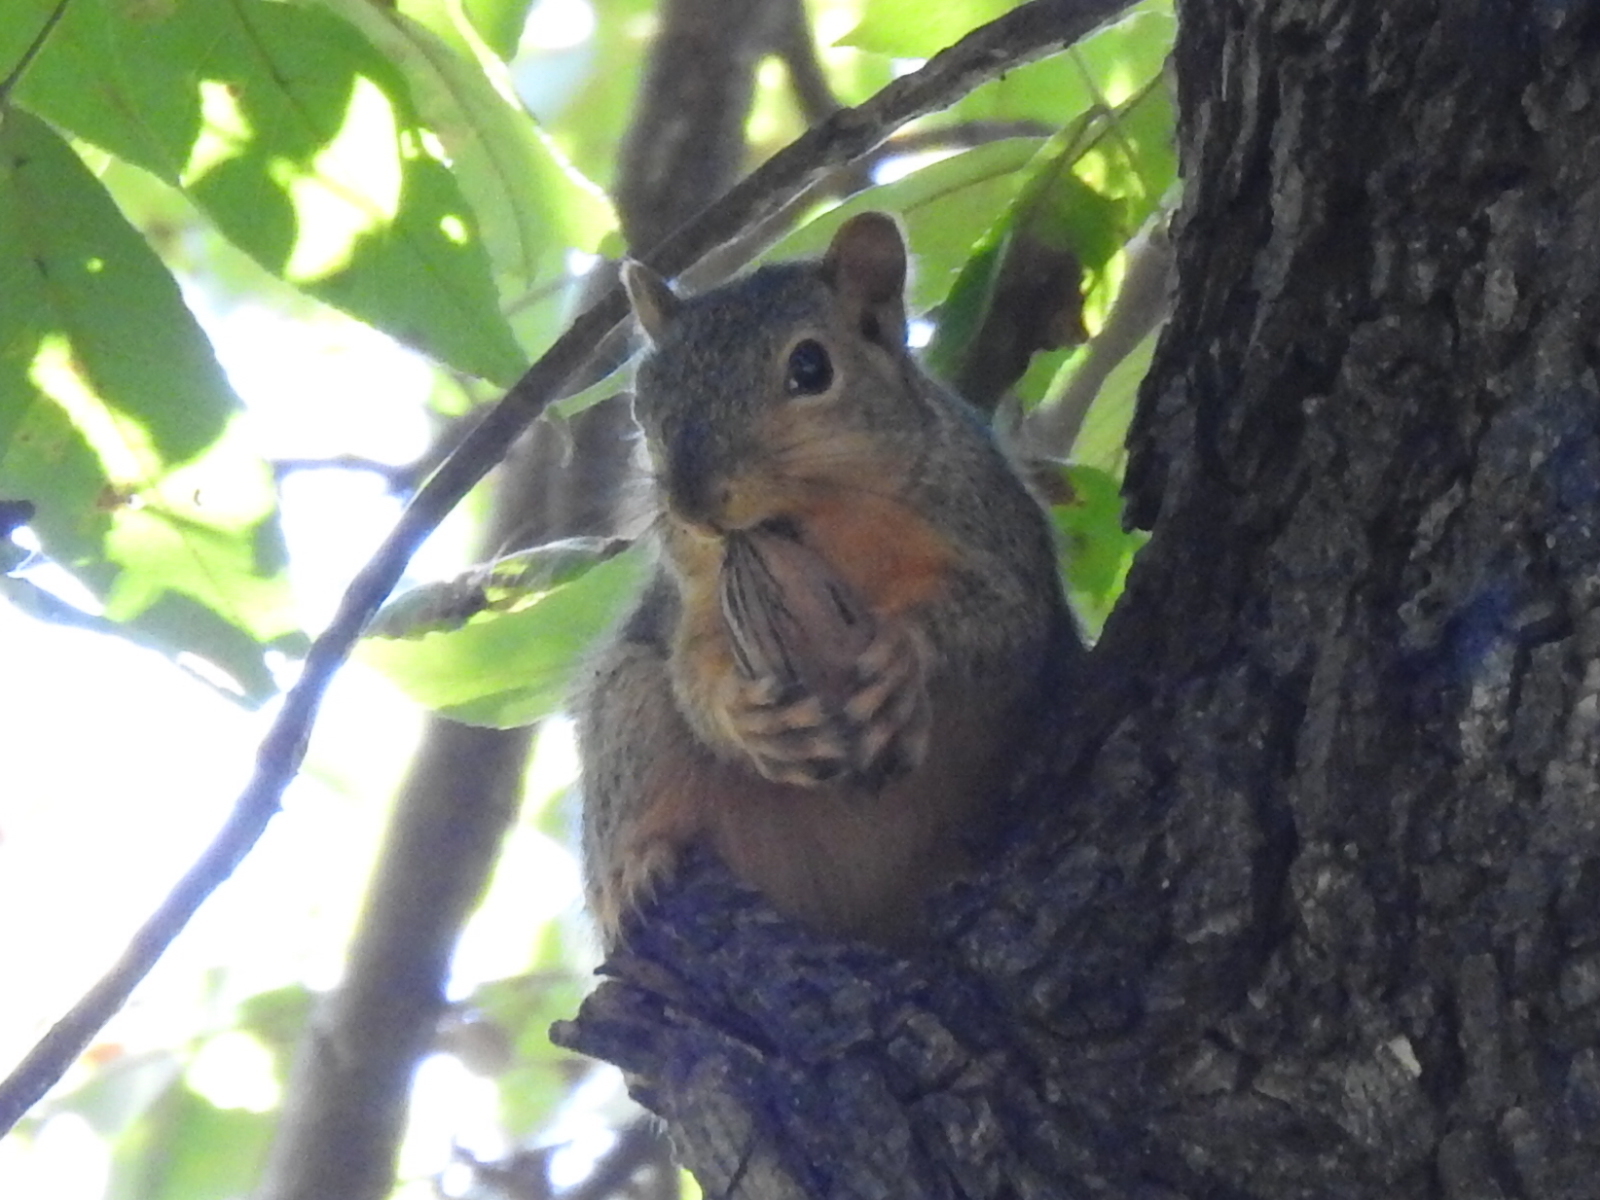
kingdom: Animalia
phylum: Chordata
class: Mammalia
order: Rodentia
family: Sciuridae
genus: Sciurus
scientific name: Sciurus niger
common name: Fox squirrel
